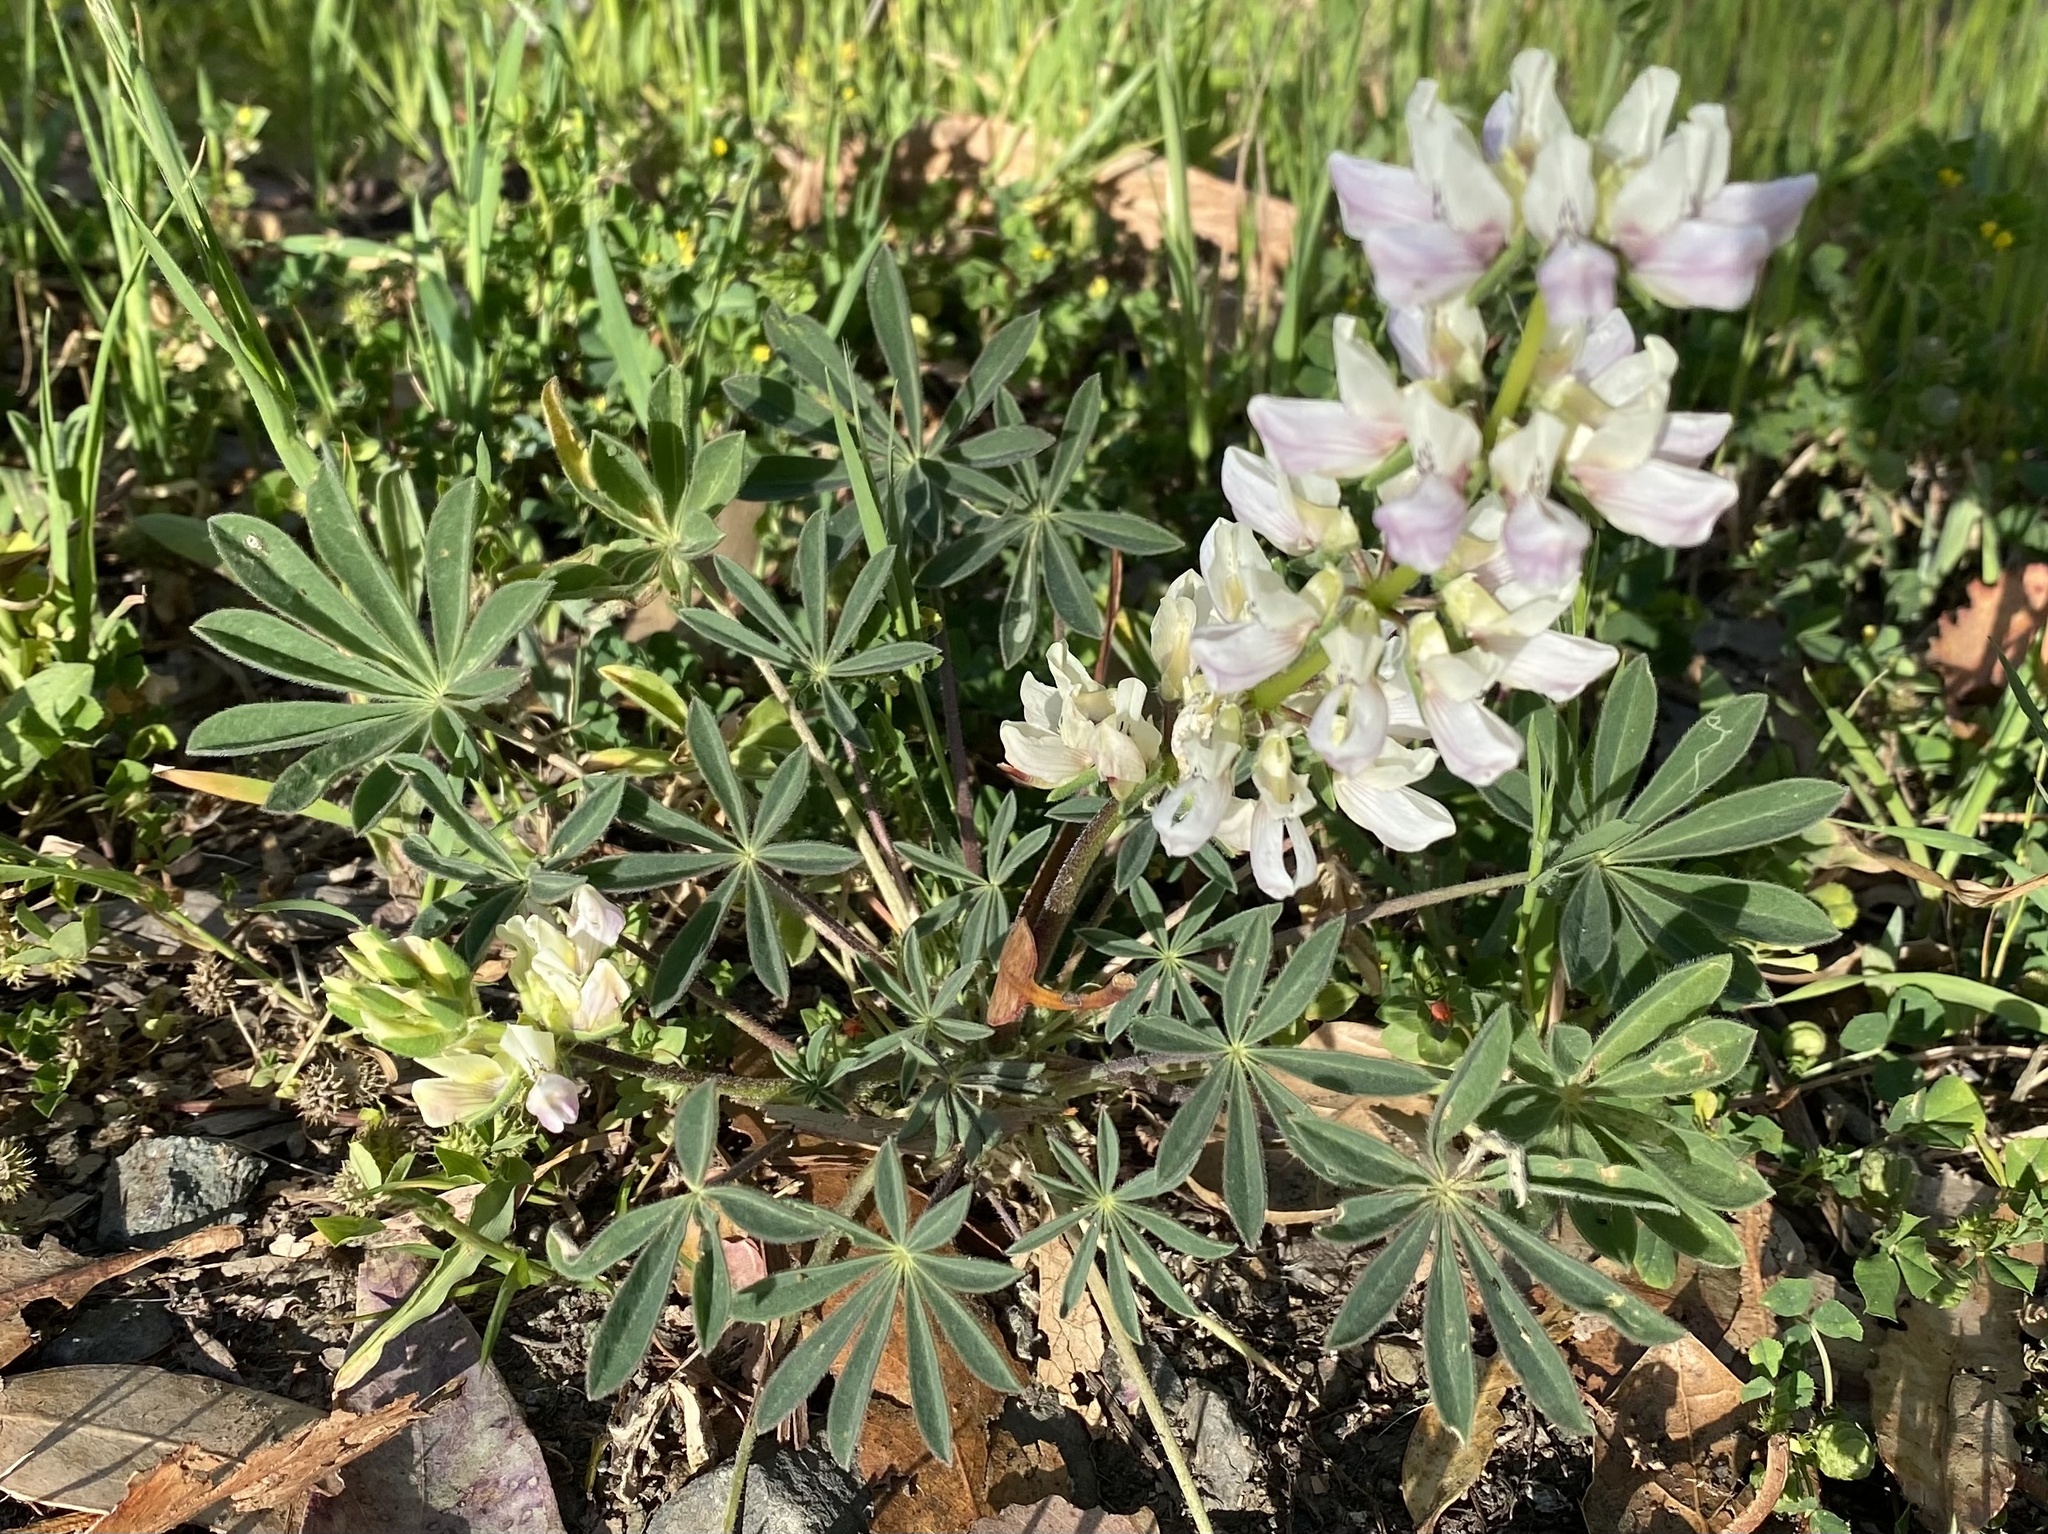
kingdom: Plantae
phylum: Tracheophyta
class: Magnoliopsida
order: Fabales
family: Fabaceae
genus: Lupinus
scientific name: Lupinus microcarpus
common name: Chick lupine
